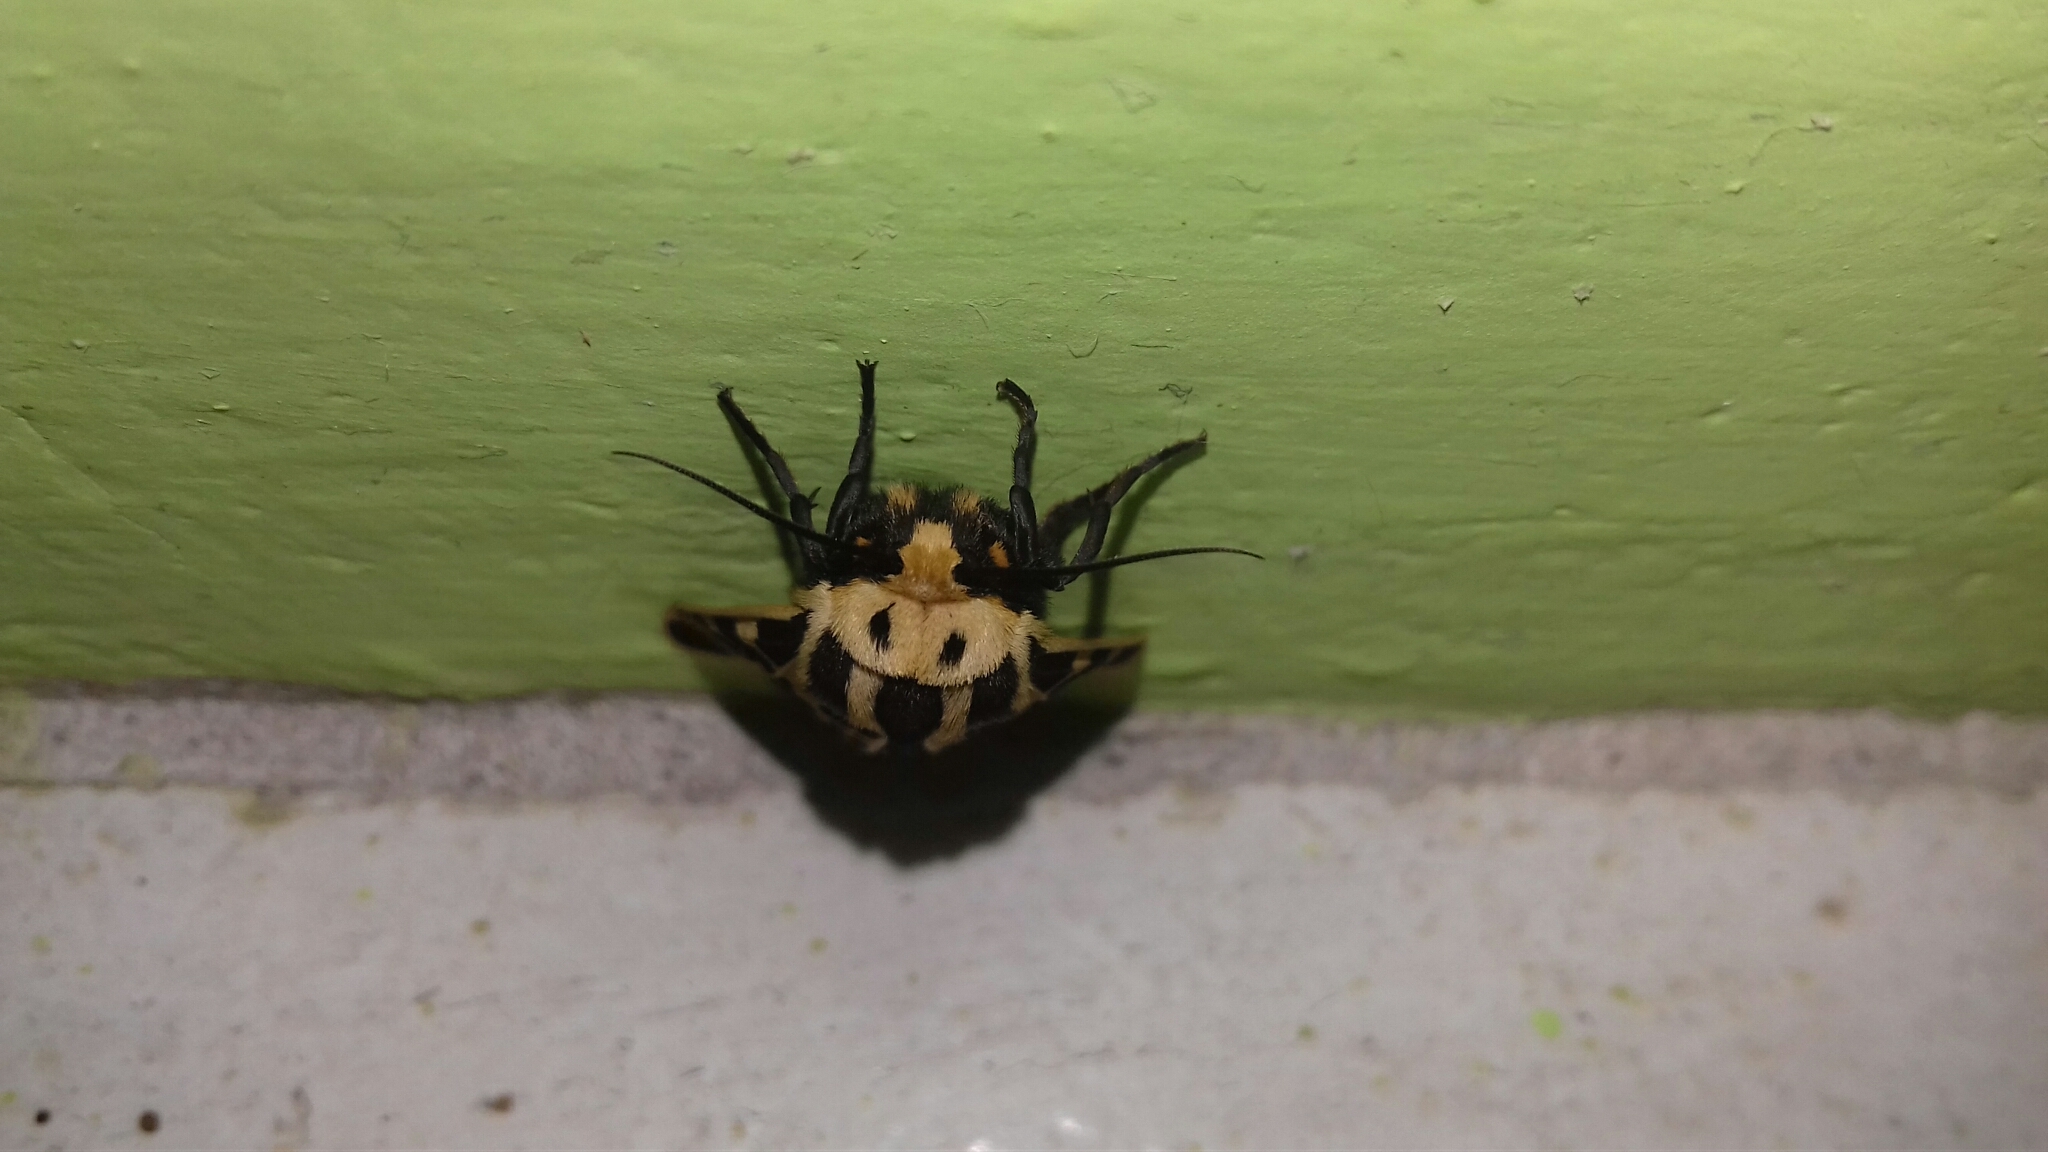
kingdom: Animalia
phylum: Arthropoda
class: Insecta
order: Lepidoptera
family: Erebidae
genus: Apantesis
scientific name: Apantesis
